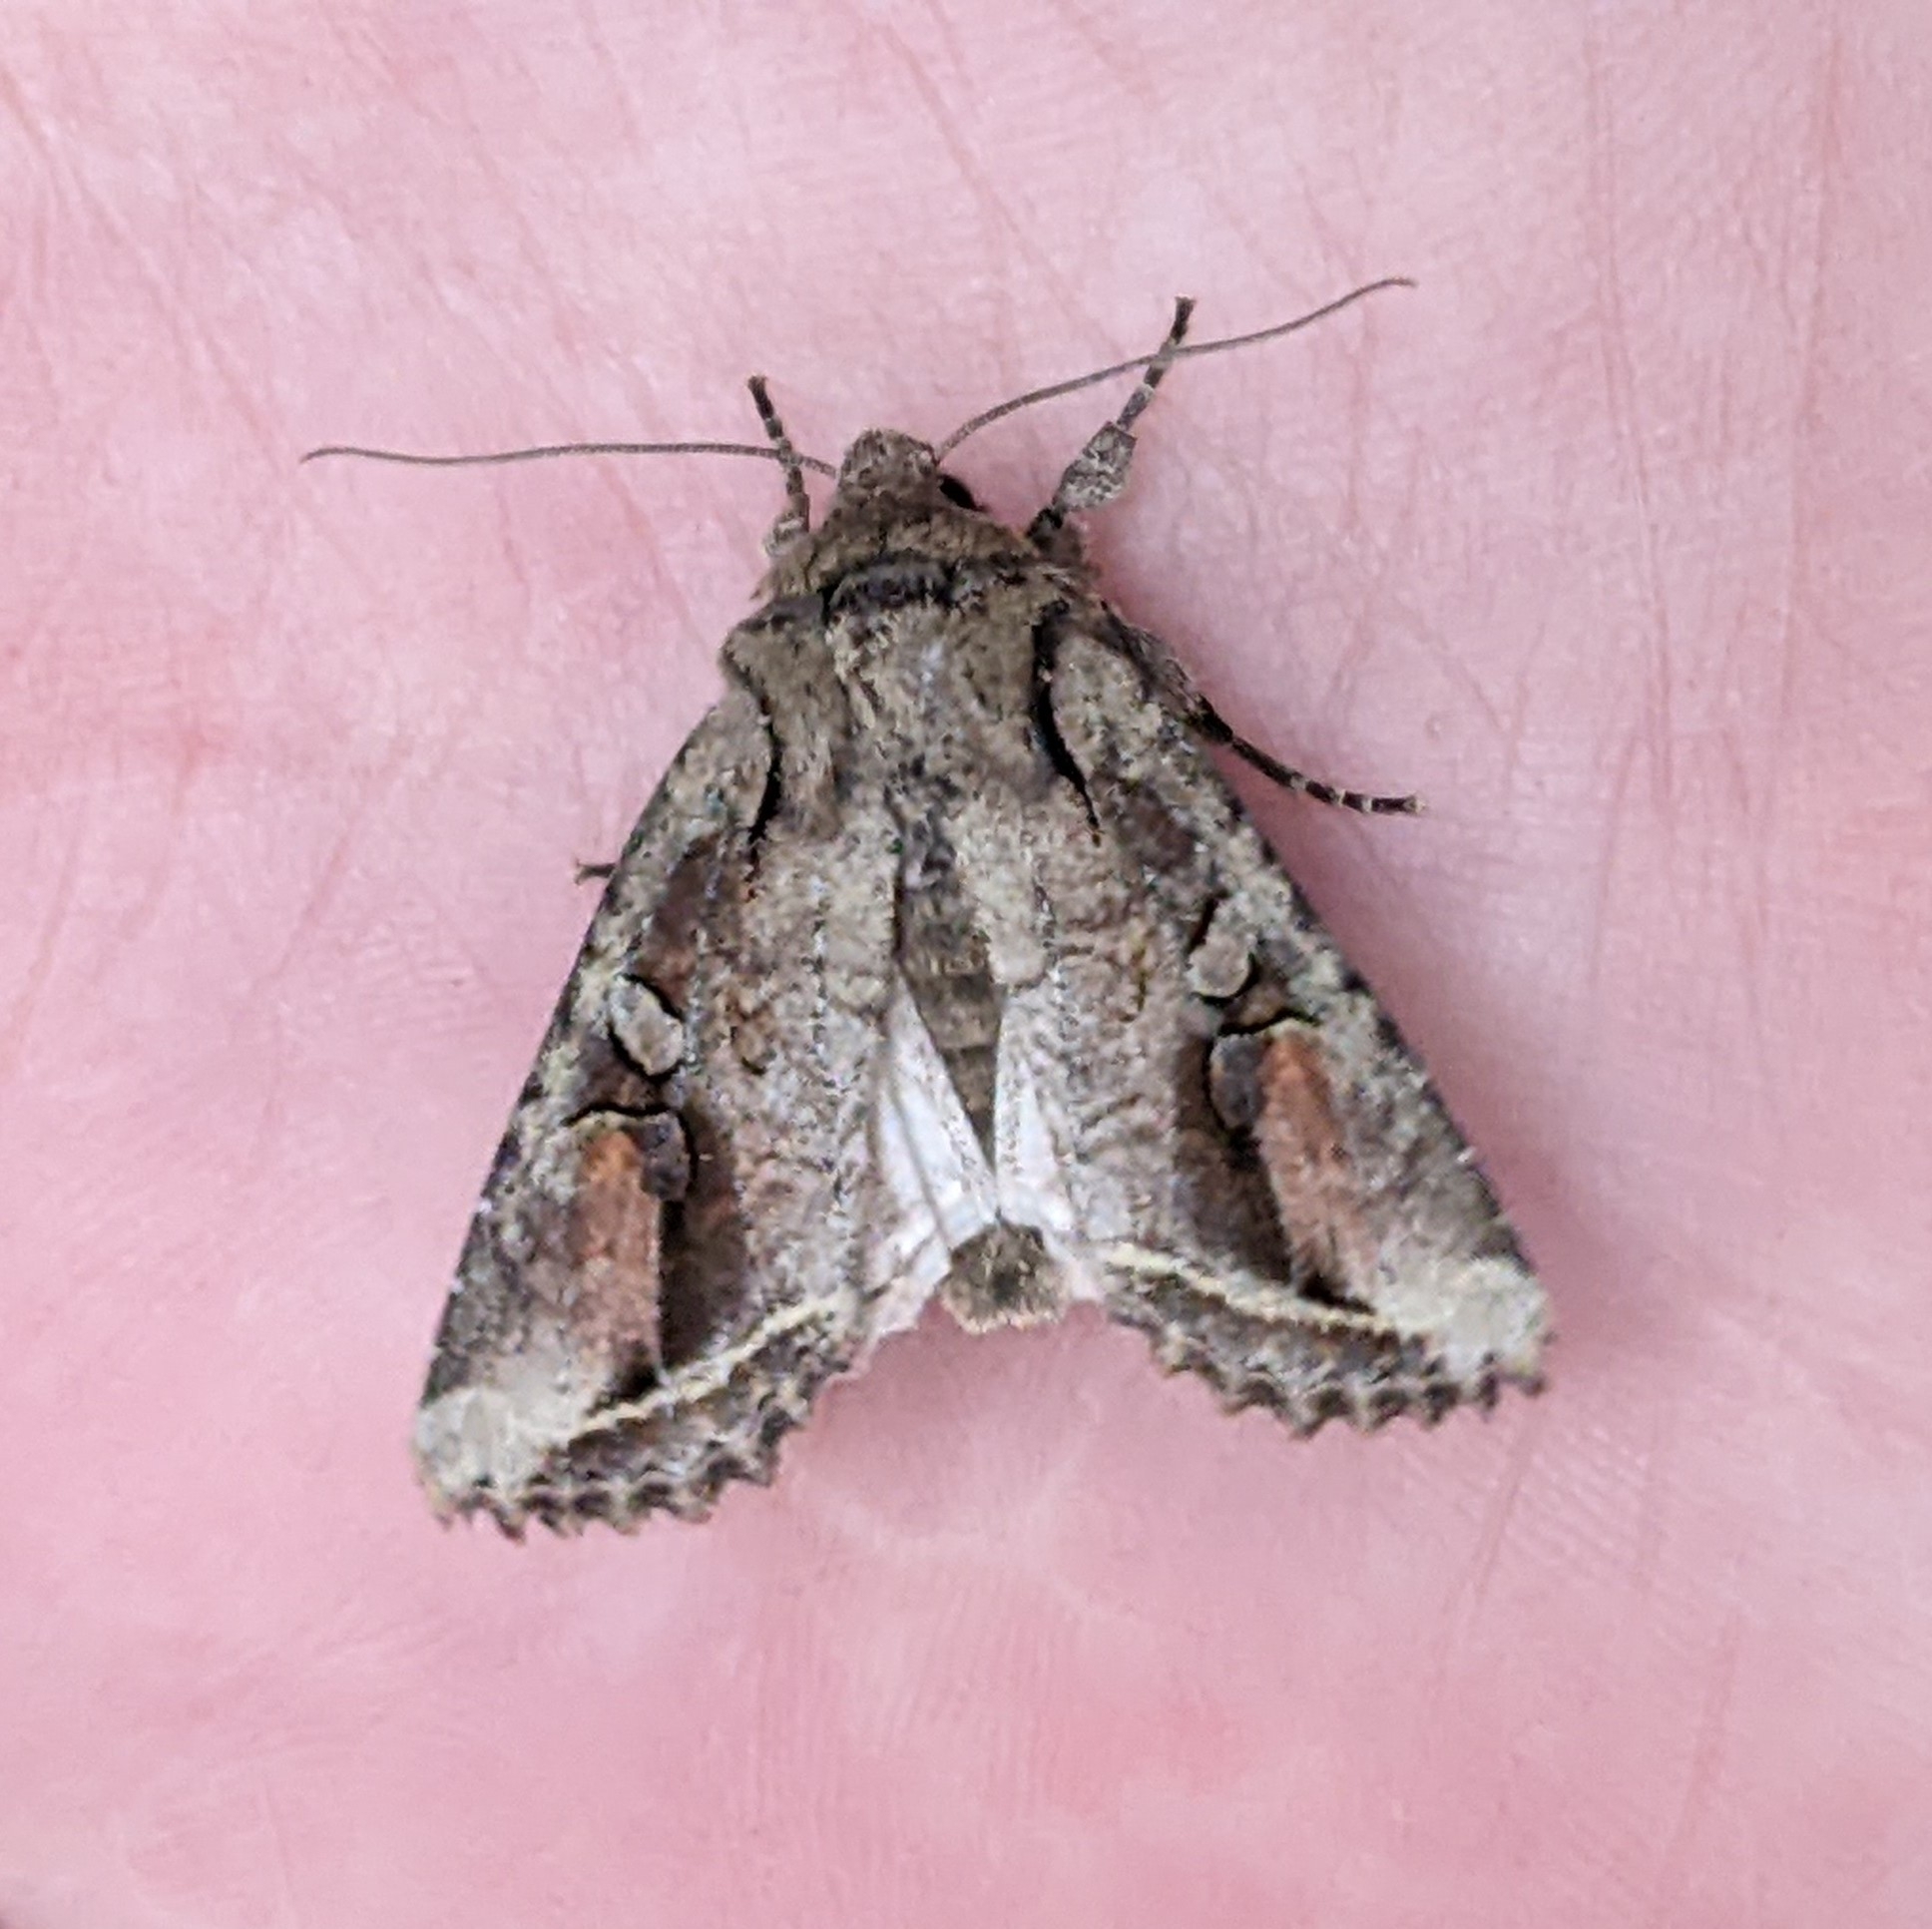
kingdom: Animalia
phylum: Arthropoda
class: Insecta
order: Lepidoptera
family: Noctuidae
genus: Egira
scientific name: Egira rubrica
